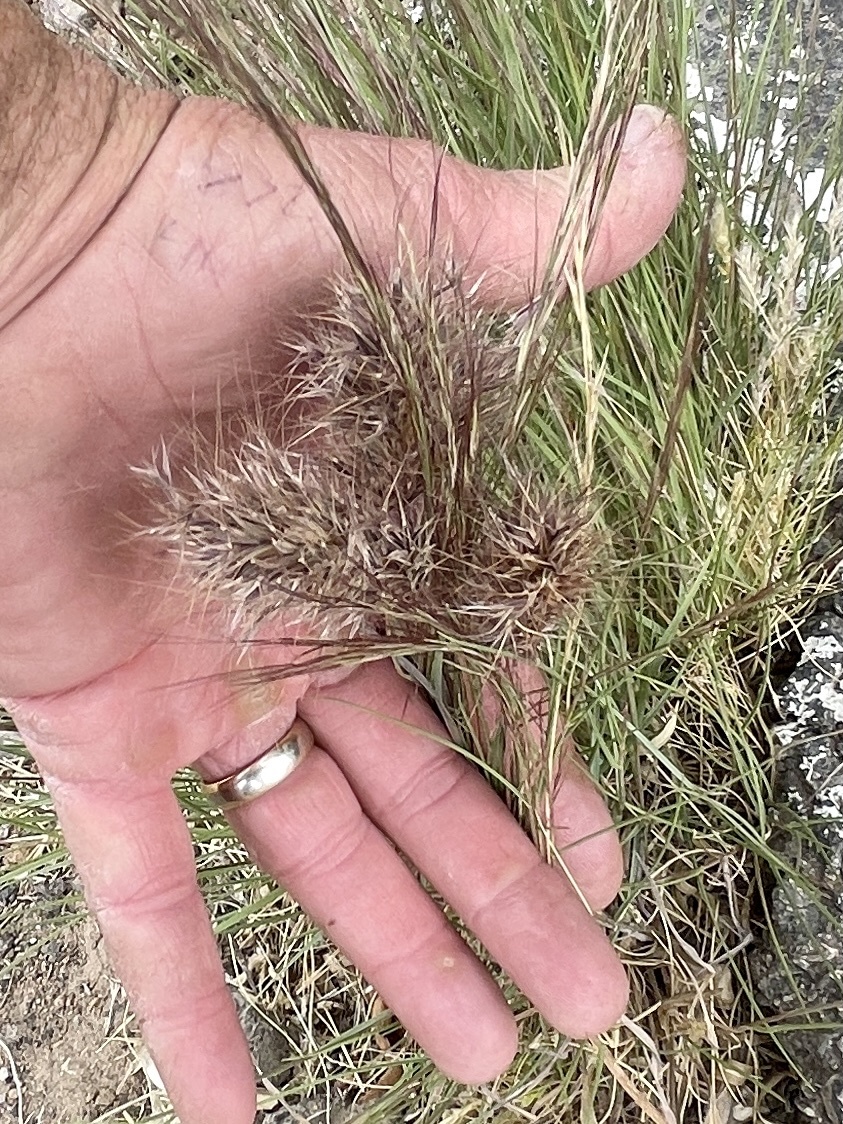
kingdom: Plantae
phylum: Tracheophyta
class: Liliopsida
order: Poales
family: Poaceae
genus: Bromus
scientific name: Bromus rubens
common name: Red brome
